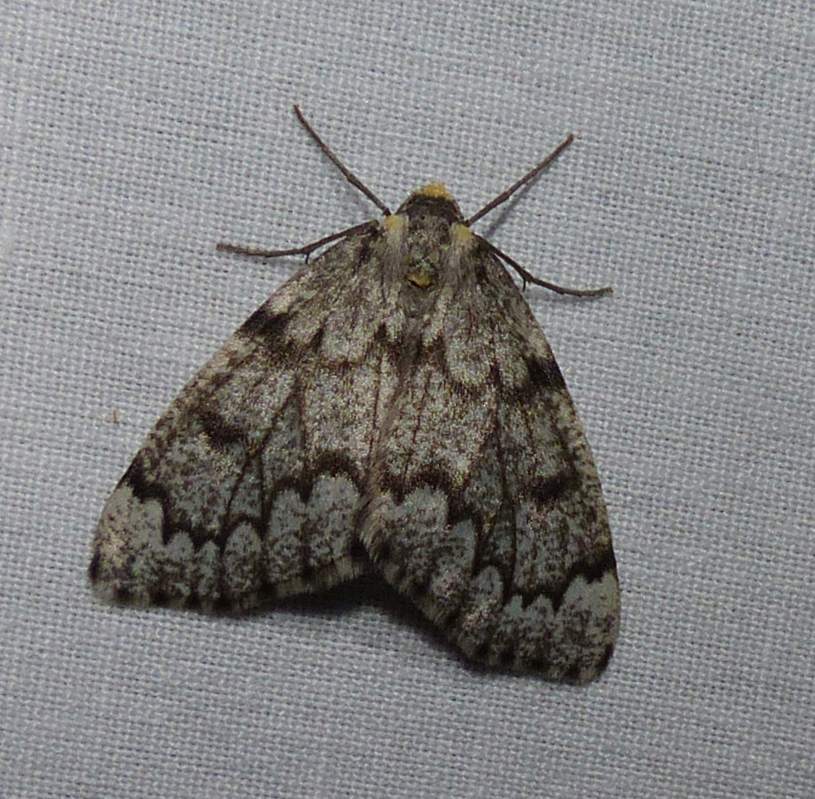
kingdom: Animalia
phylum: Arthropoda
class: Insecta
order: Lepidoptera
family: Geometridae
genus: Nepytia
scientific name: Nepytia canosaria
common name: False hemlock looper
